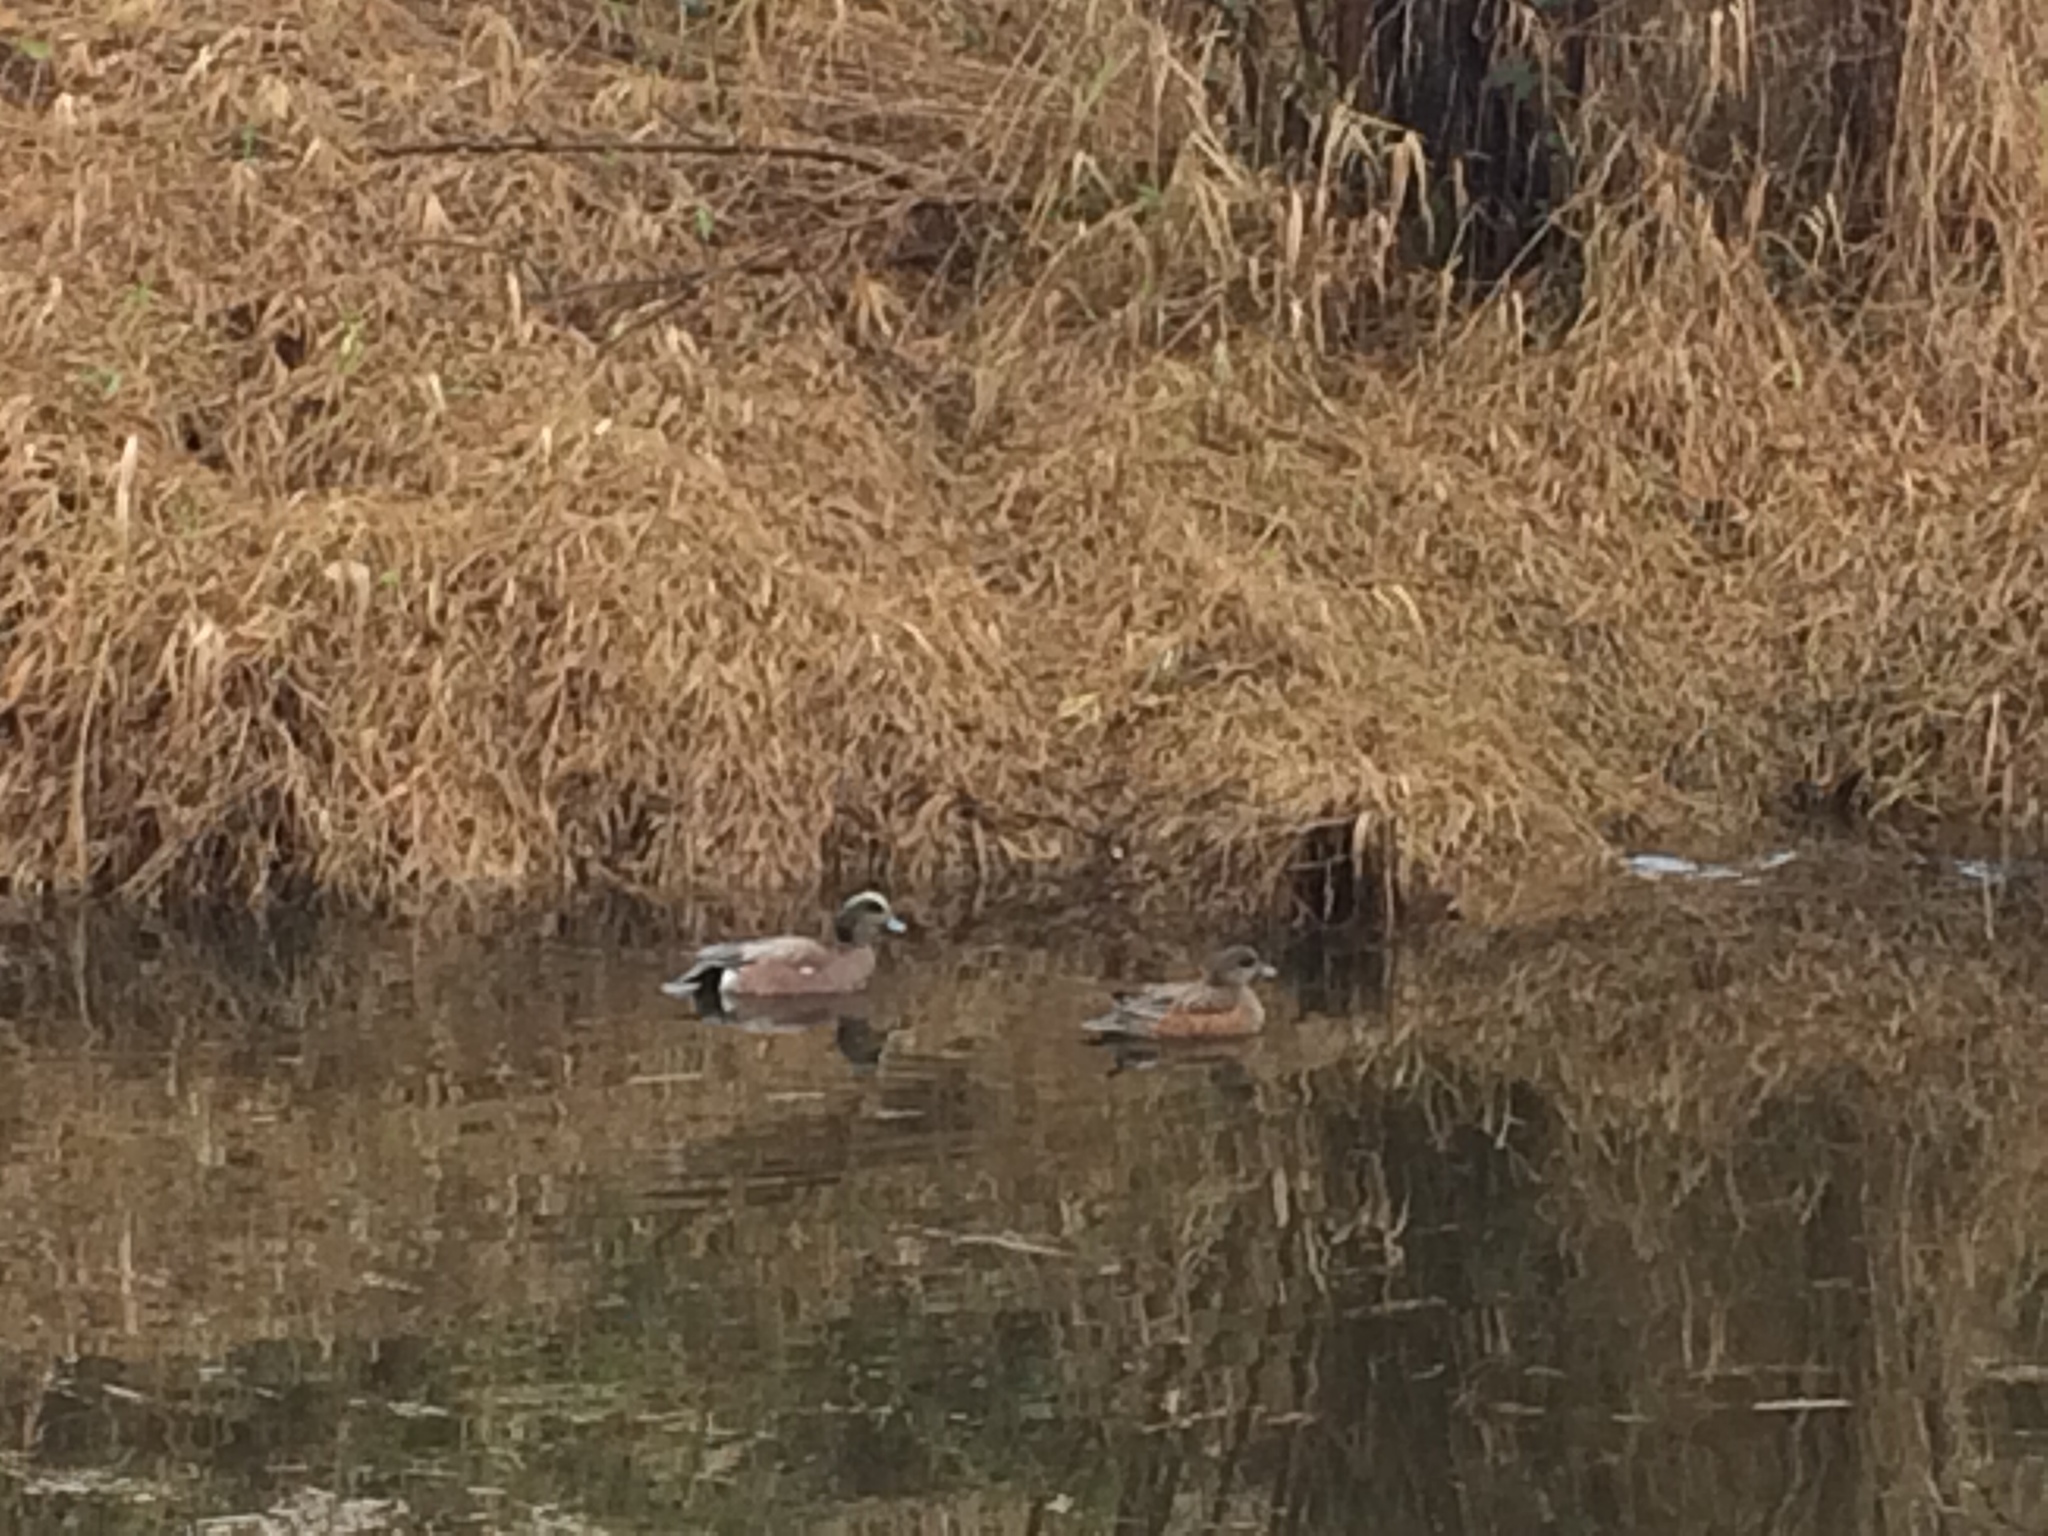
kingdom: Animalia
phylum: Chordata
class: Aves
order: Anseriformes
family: Anatidae
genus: Mareca
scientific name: Mareca americana
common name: American wigeon
